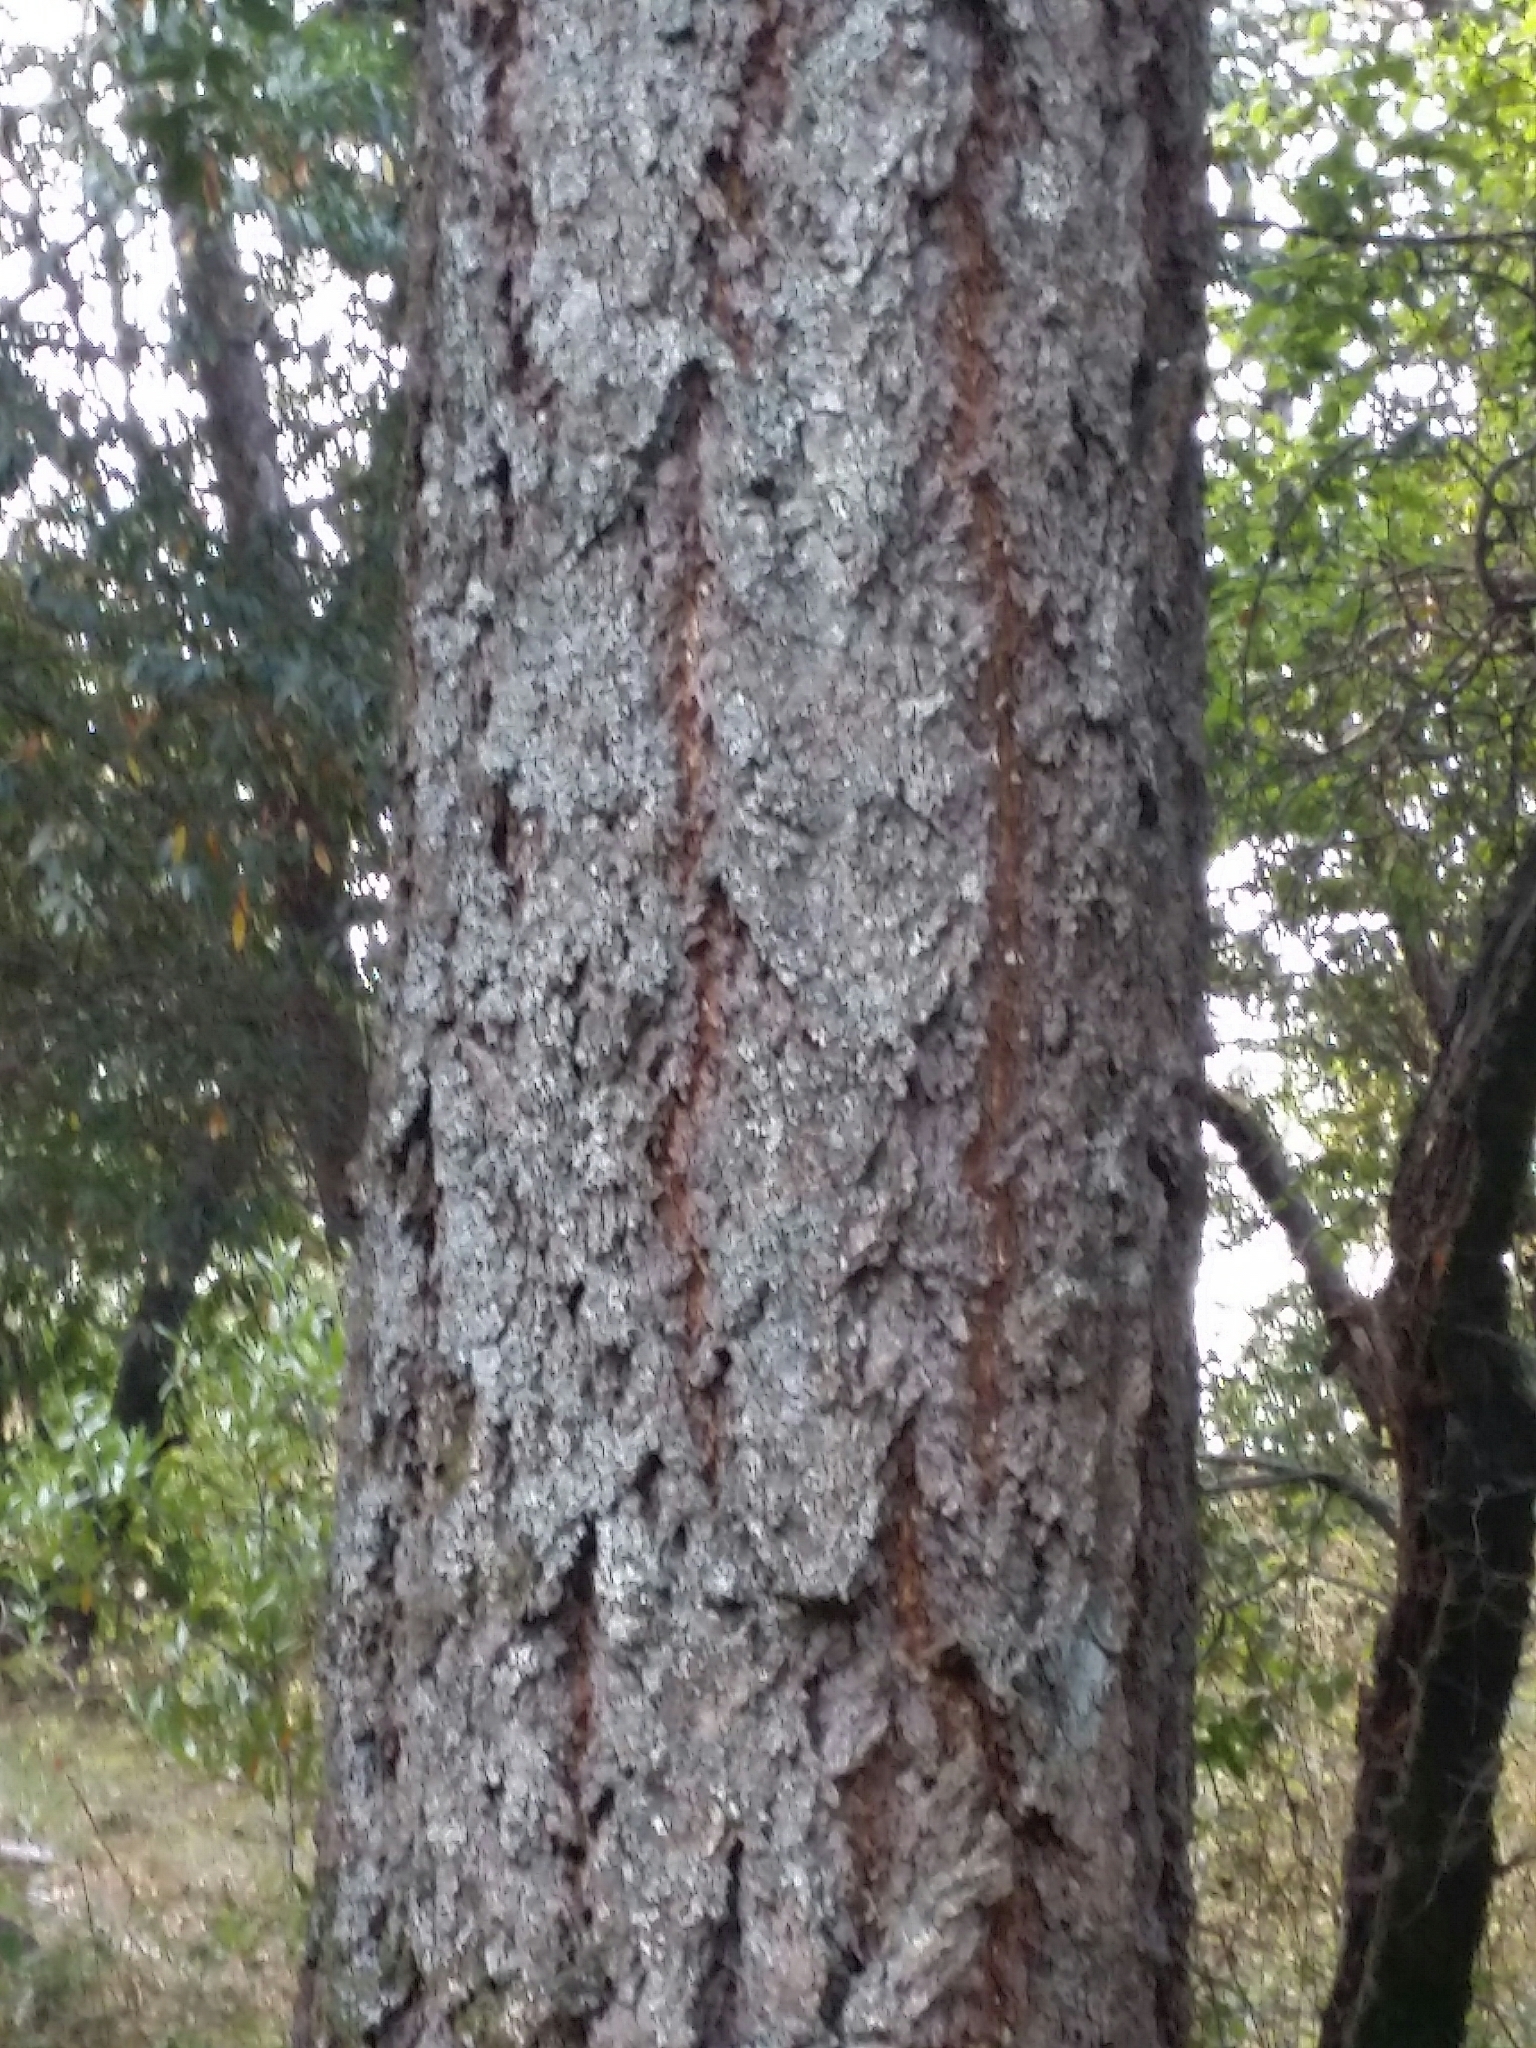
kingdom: Plantae
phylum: Tracheophyta
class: Pinopsida
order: Pinales
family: Pinaceae
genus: Pseudotsuga
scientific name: Pseudotsuga menziesii
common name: Douglas fir
